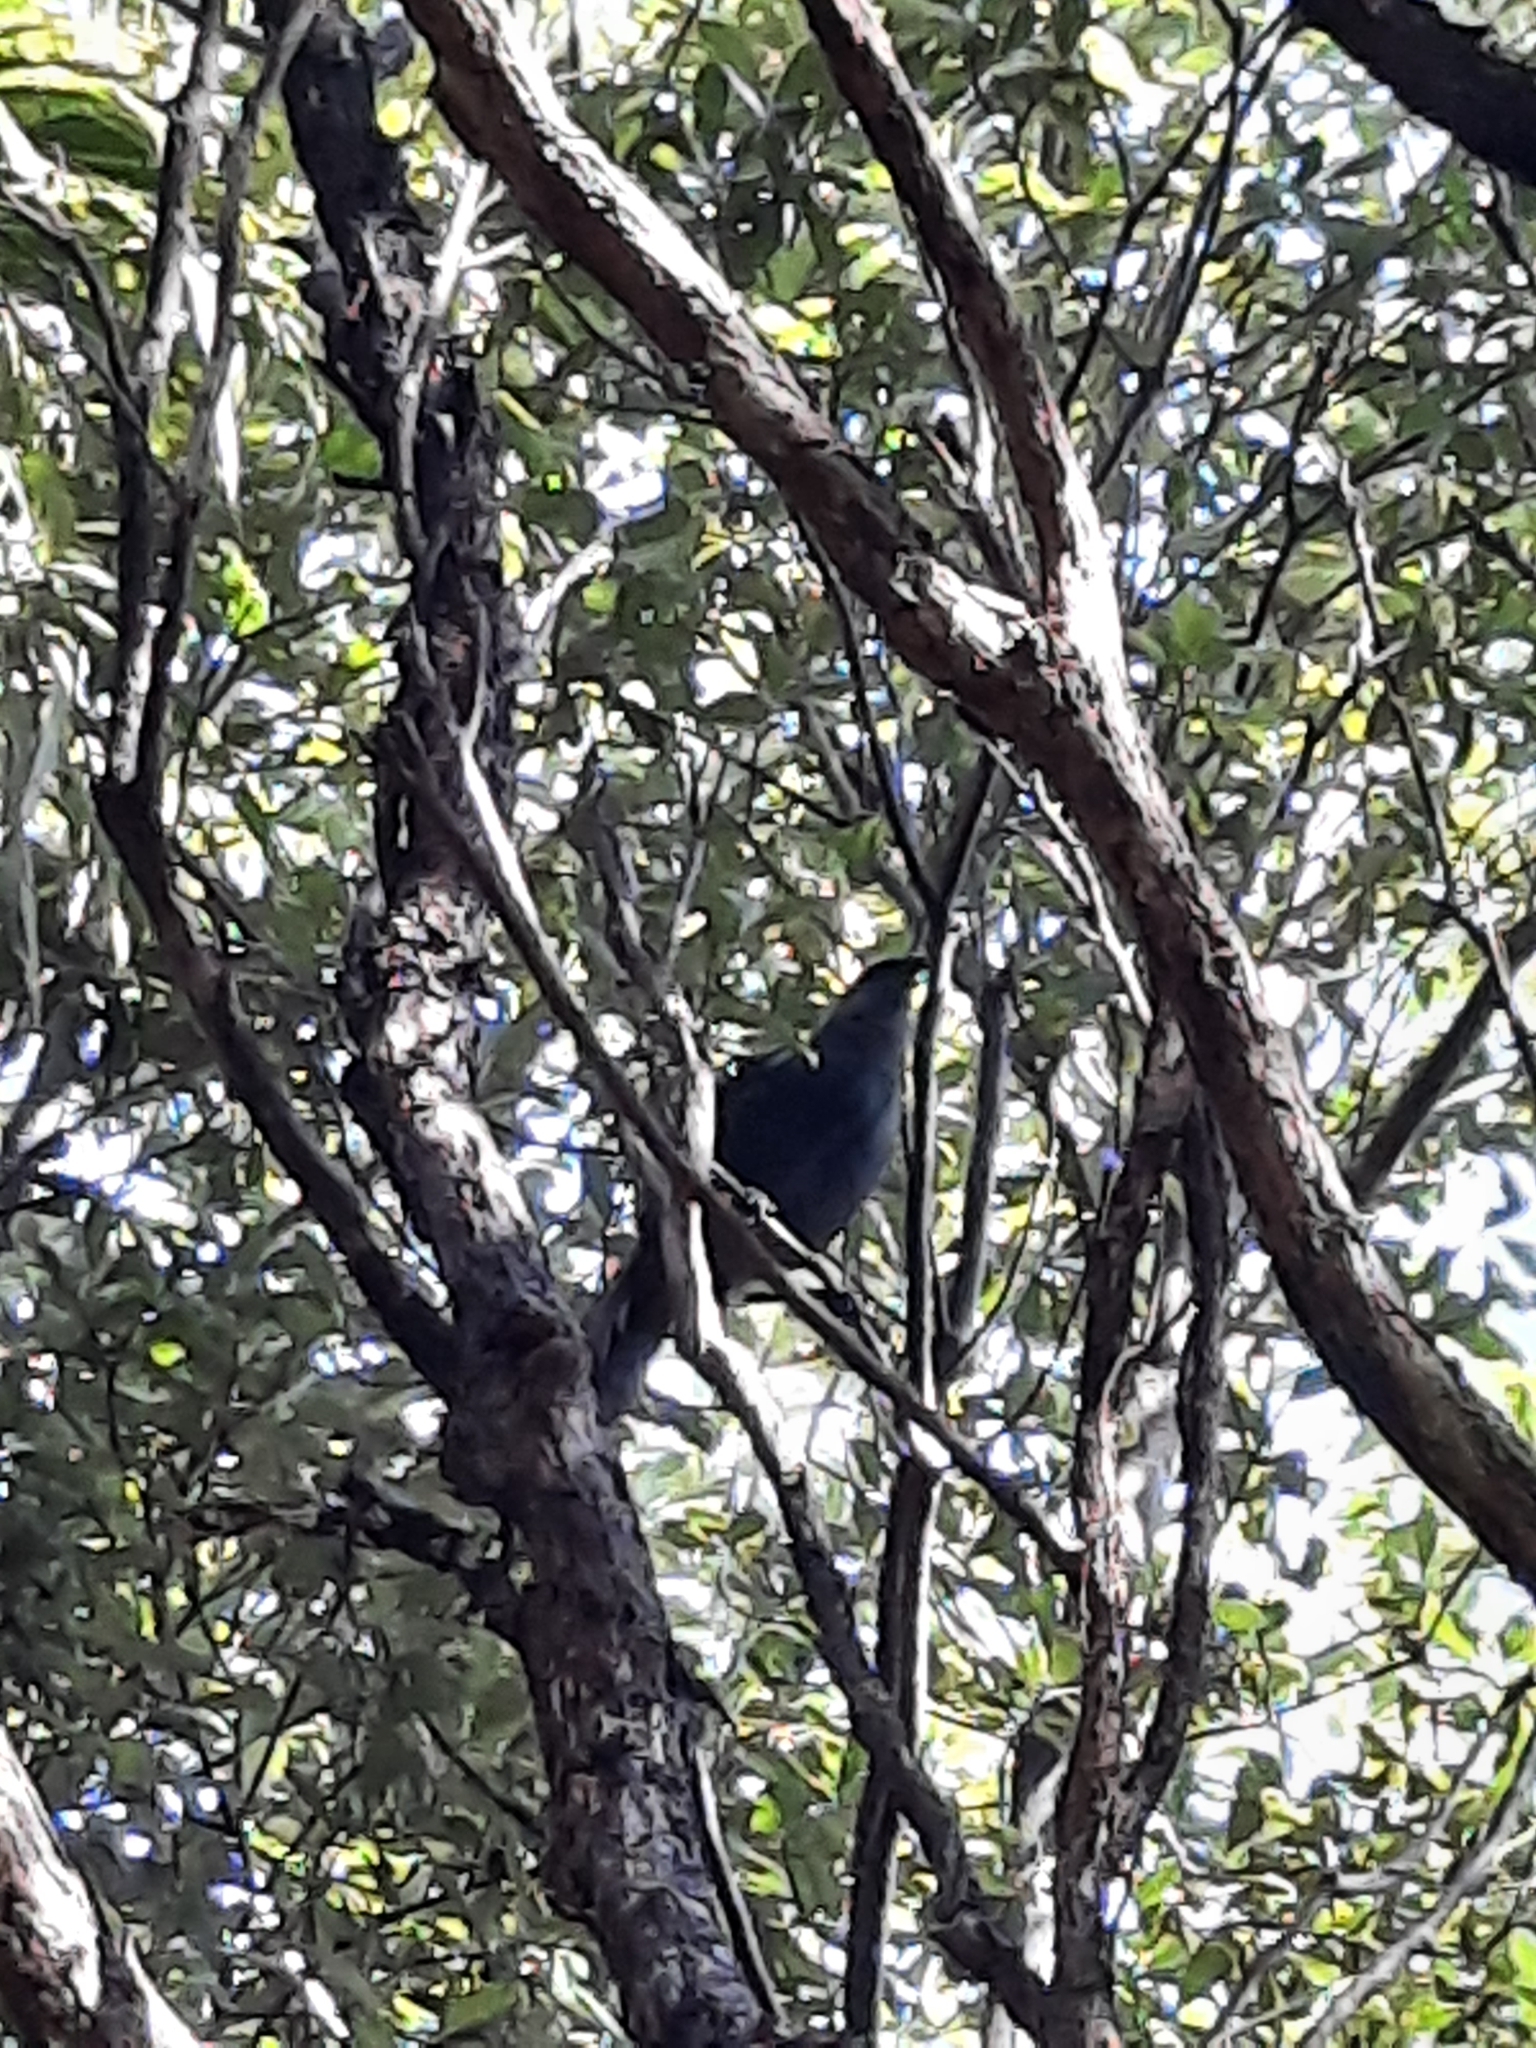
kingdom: Animalia
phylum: Chordata
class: Aves
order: Passeriformes
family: Callaeatidae
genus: Callaeas
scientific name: Callaeas cinereus
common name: South island kokako
